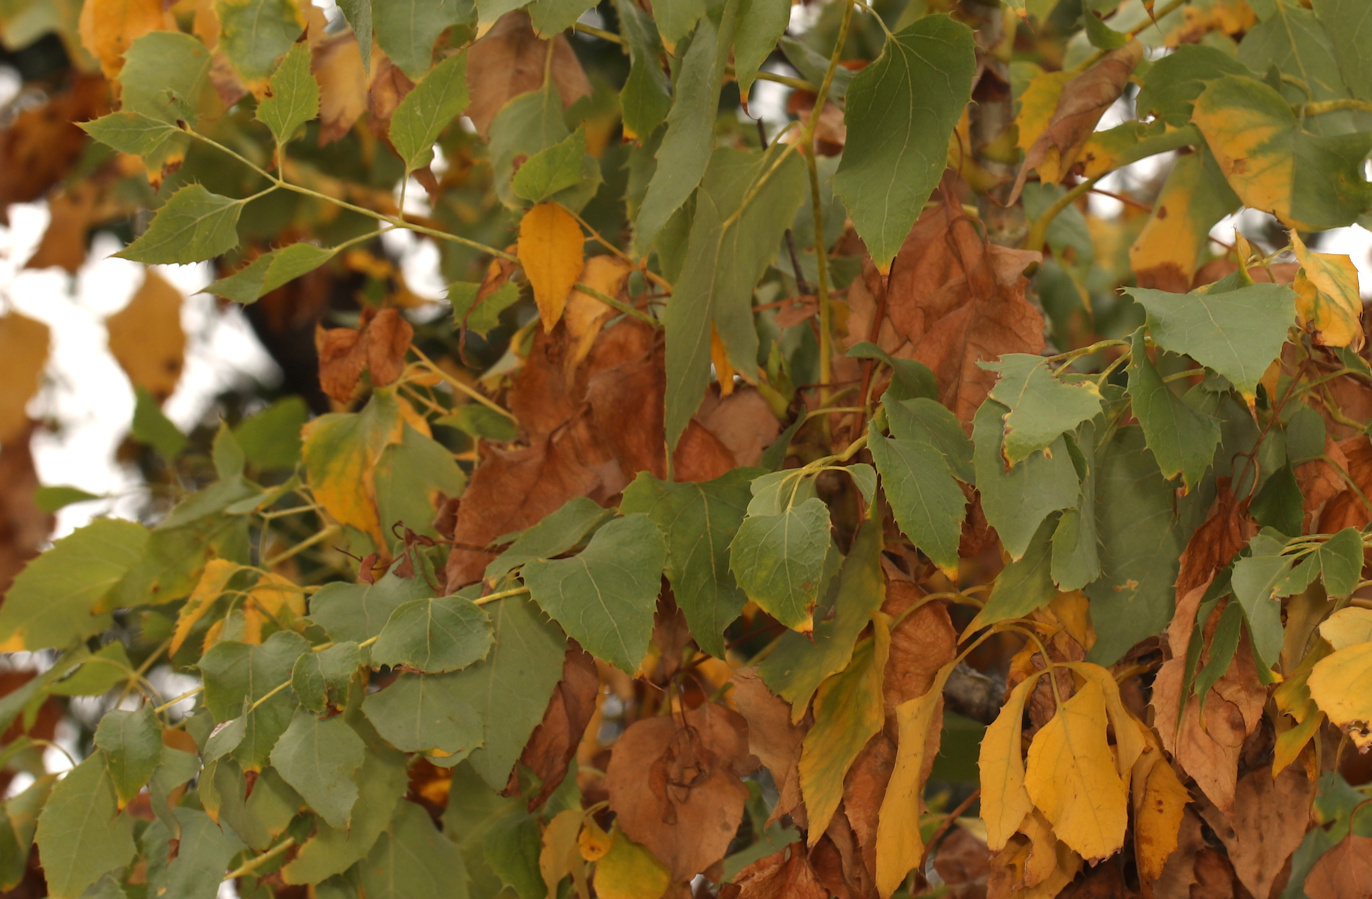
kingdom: Plantae
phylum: Tracheophyta
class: Magnoliopsida
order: Apiales
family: Apiaceae
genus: Steganotaenia
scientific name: Steganotaenia araliacea
